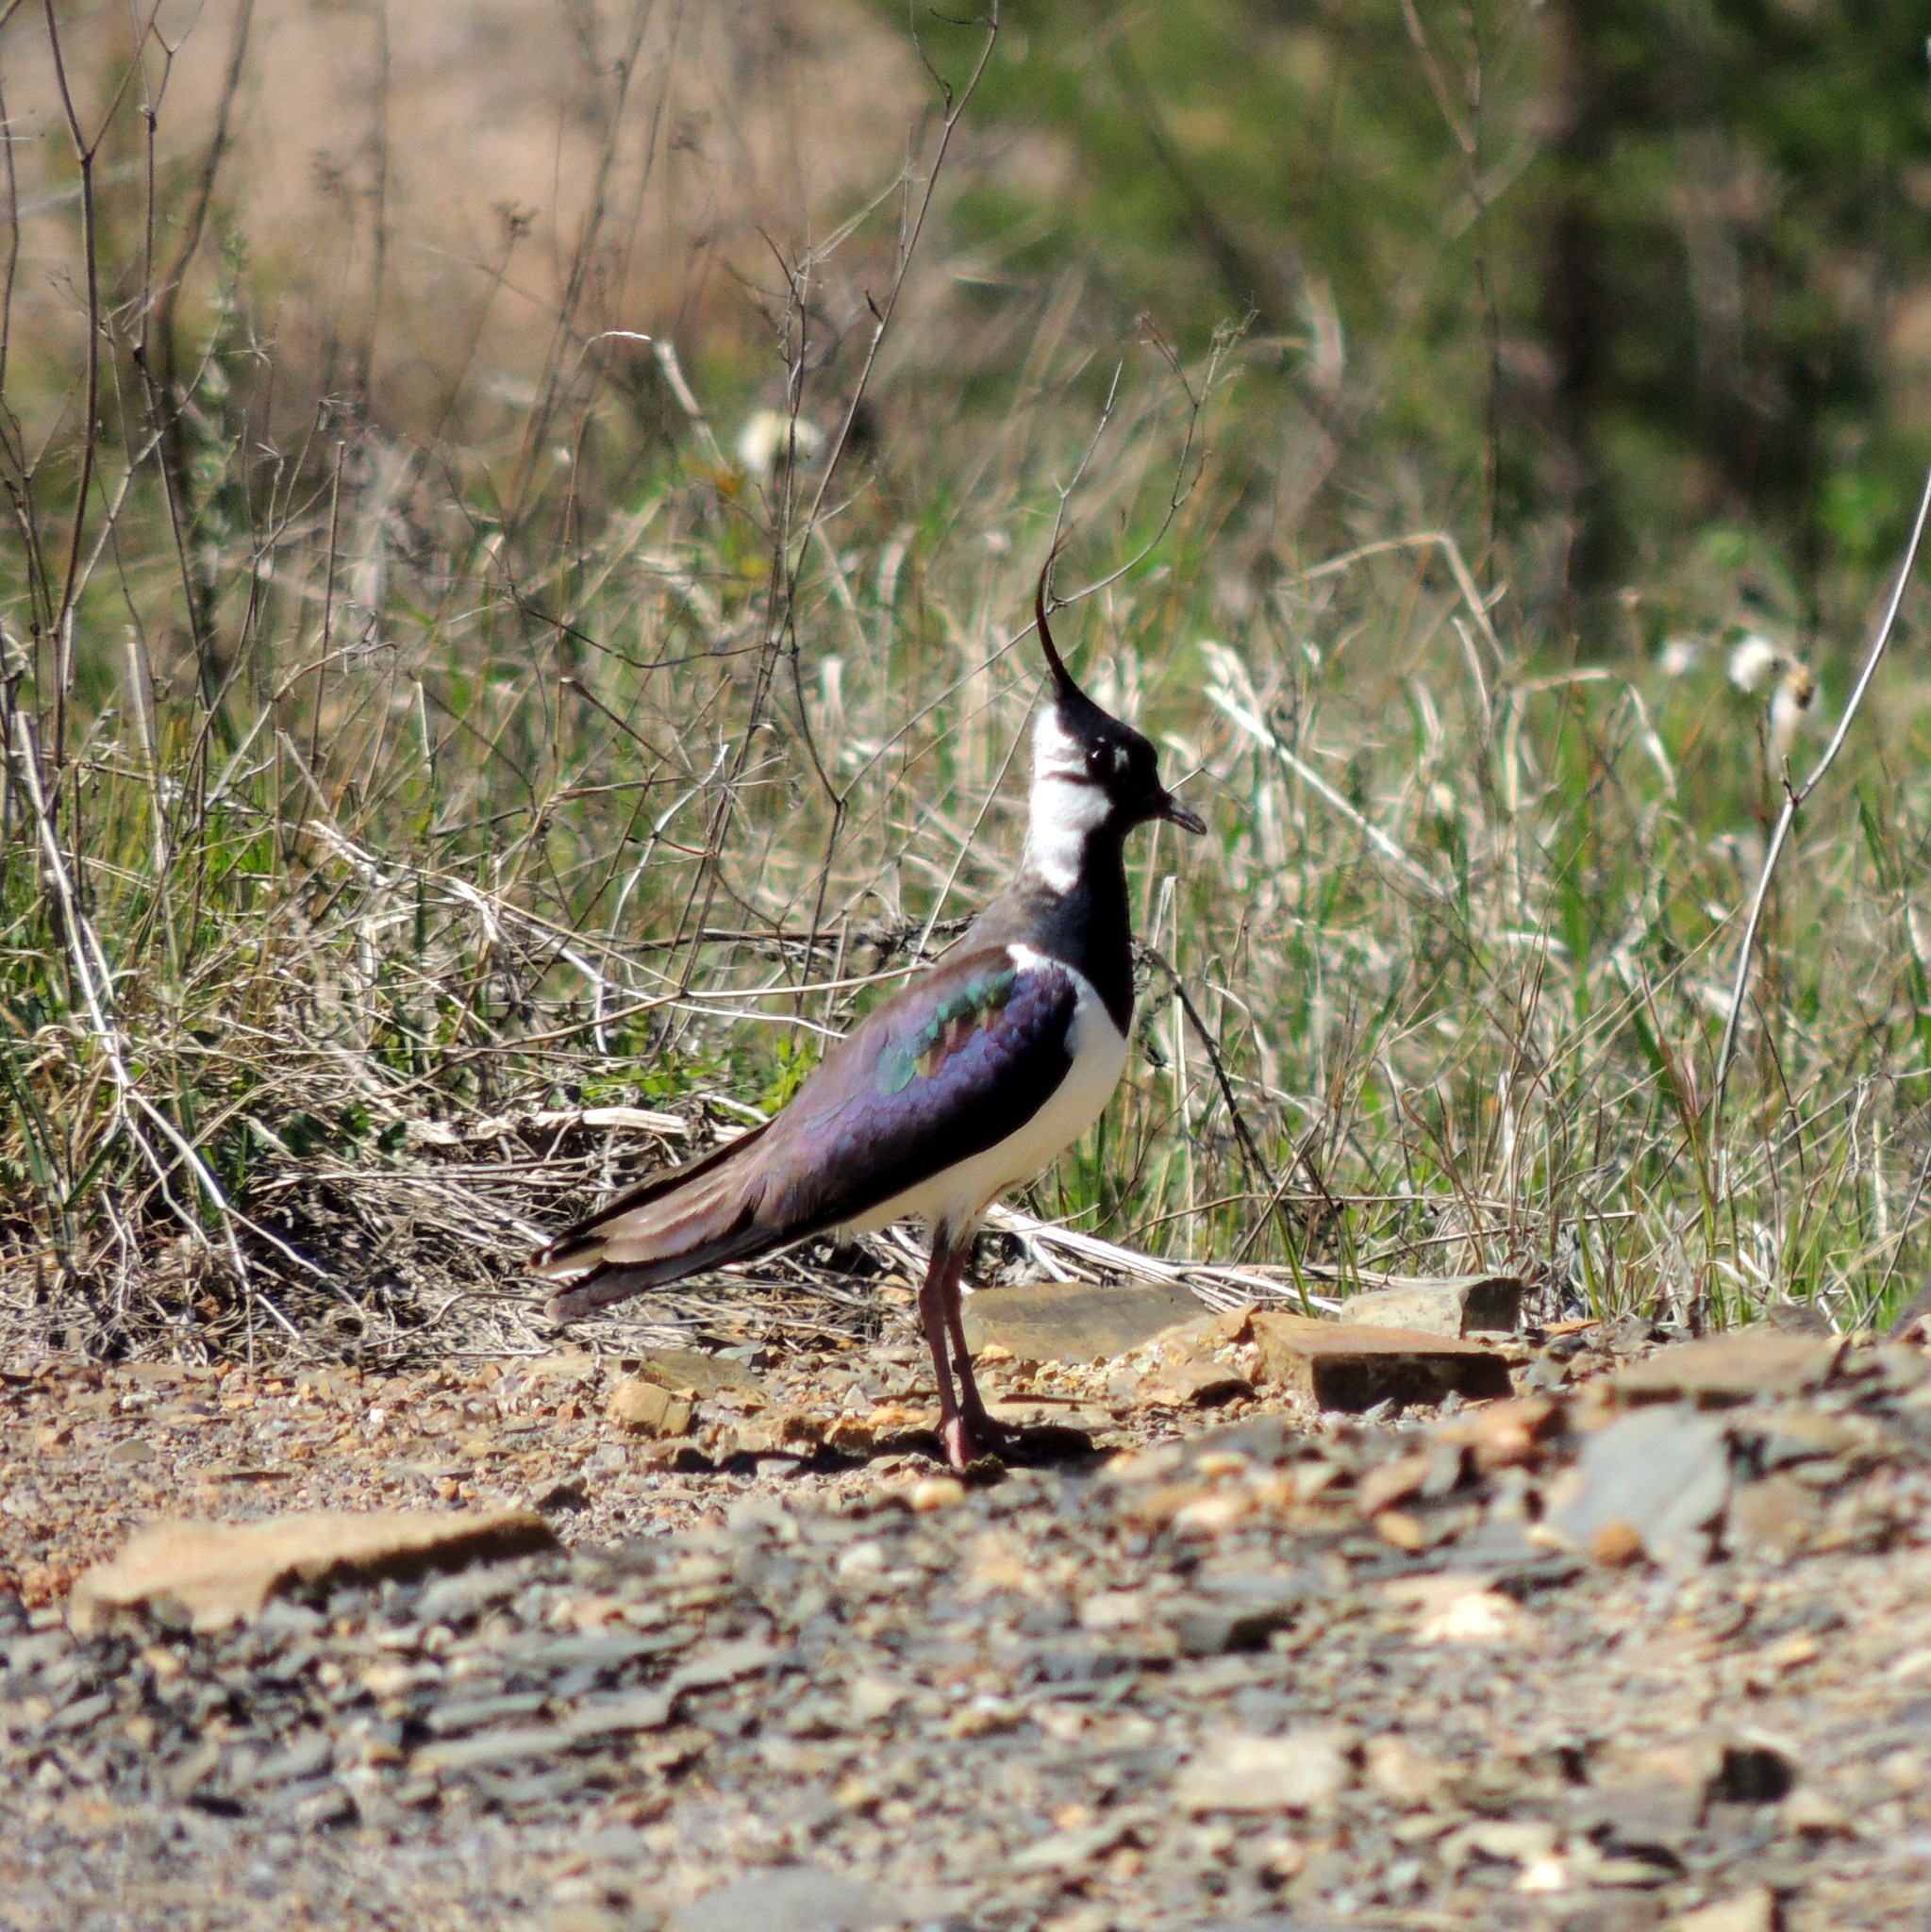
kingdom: Animalia
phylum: Chordata
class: Aves
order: Charadriiformes
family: Charadriidae
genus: Vanellus
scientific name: Vanellus vanellus
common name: Northern lapwing
